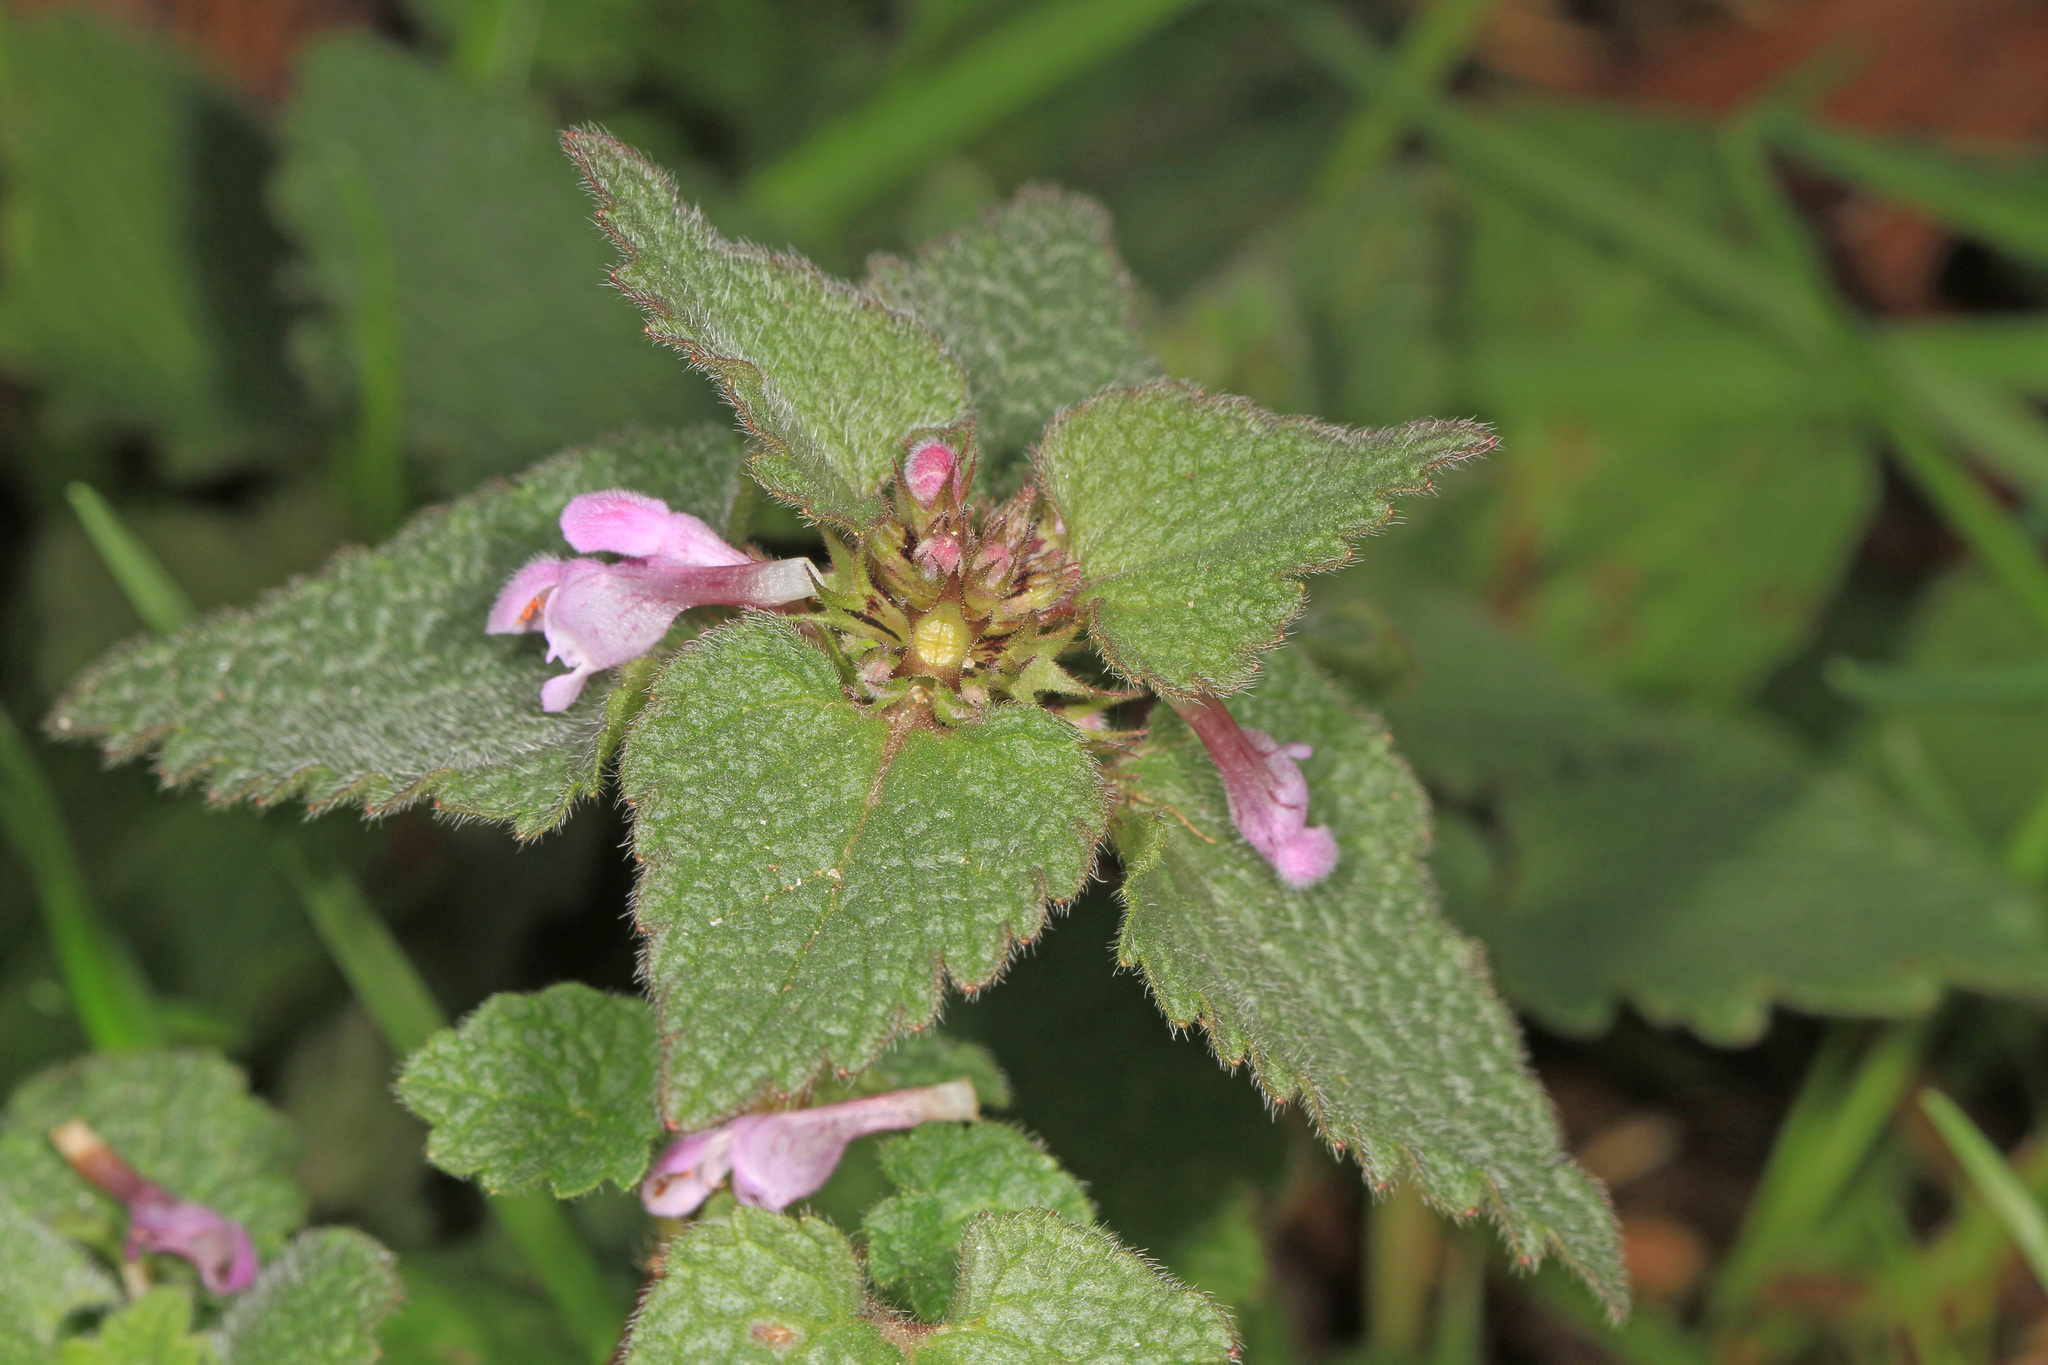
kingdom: Plantae
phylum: Tracheophyta
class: Magnoliopsida
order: Lamiales
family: Lamiaceae
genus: Lamium
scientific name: Lamium purpureum
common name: Red dead-nettle
